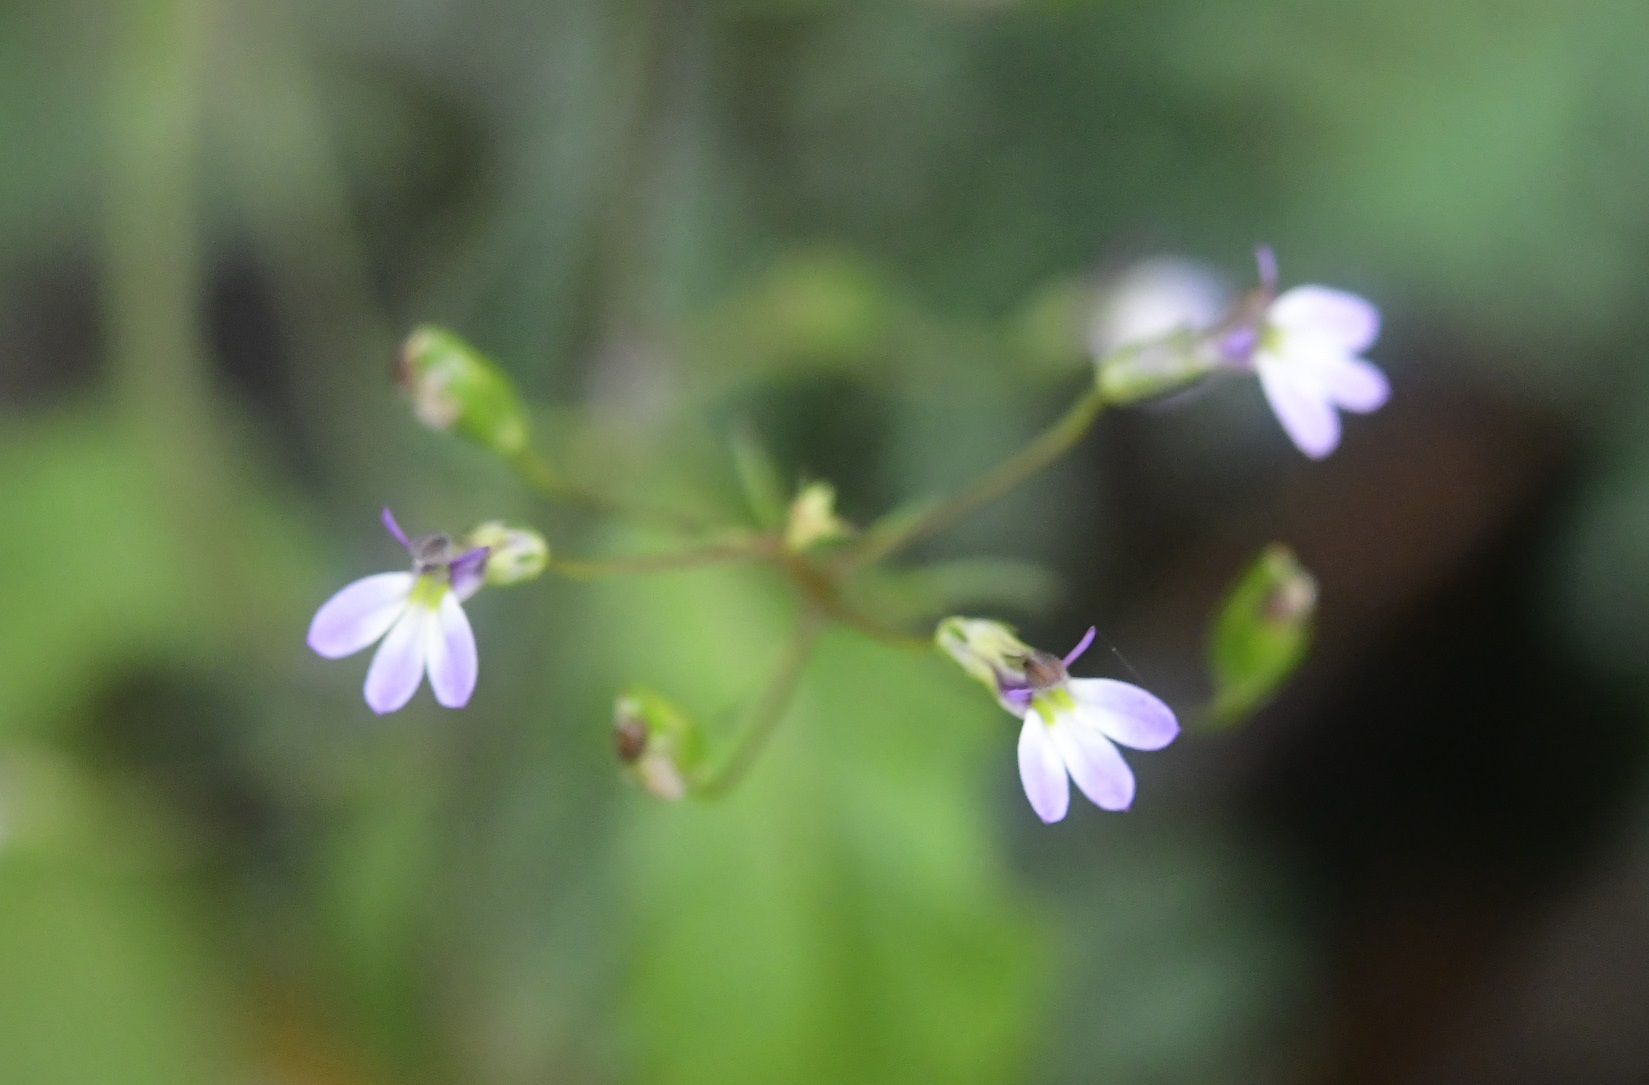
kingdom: Plantae
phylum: Tracheophyta
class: Magnoliopsida
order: Asterales
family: Campanulaceae
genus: Lobelia
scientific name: Lobelia caeciliae
